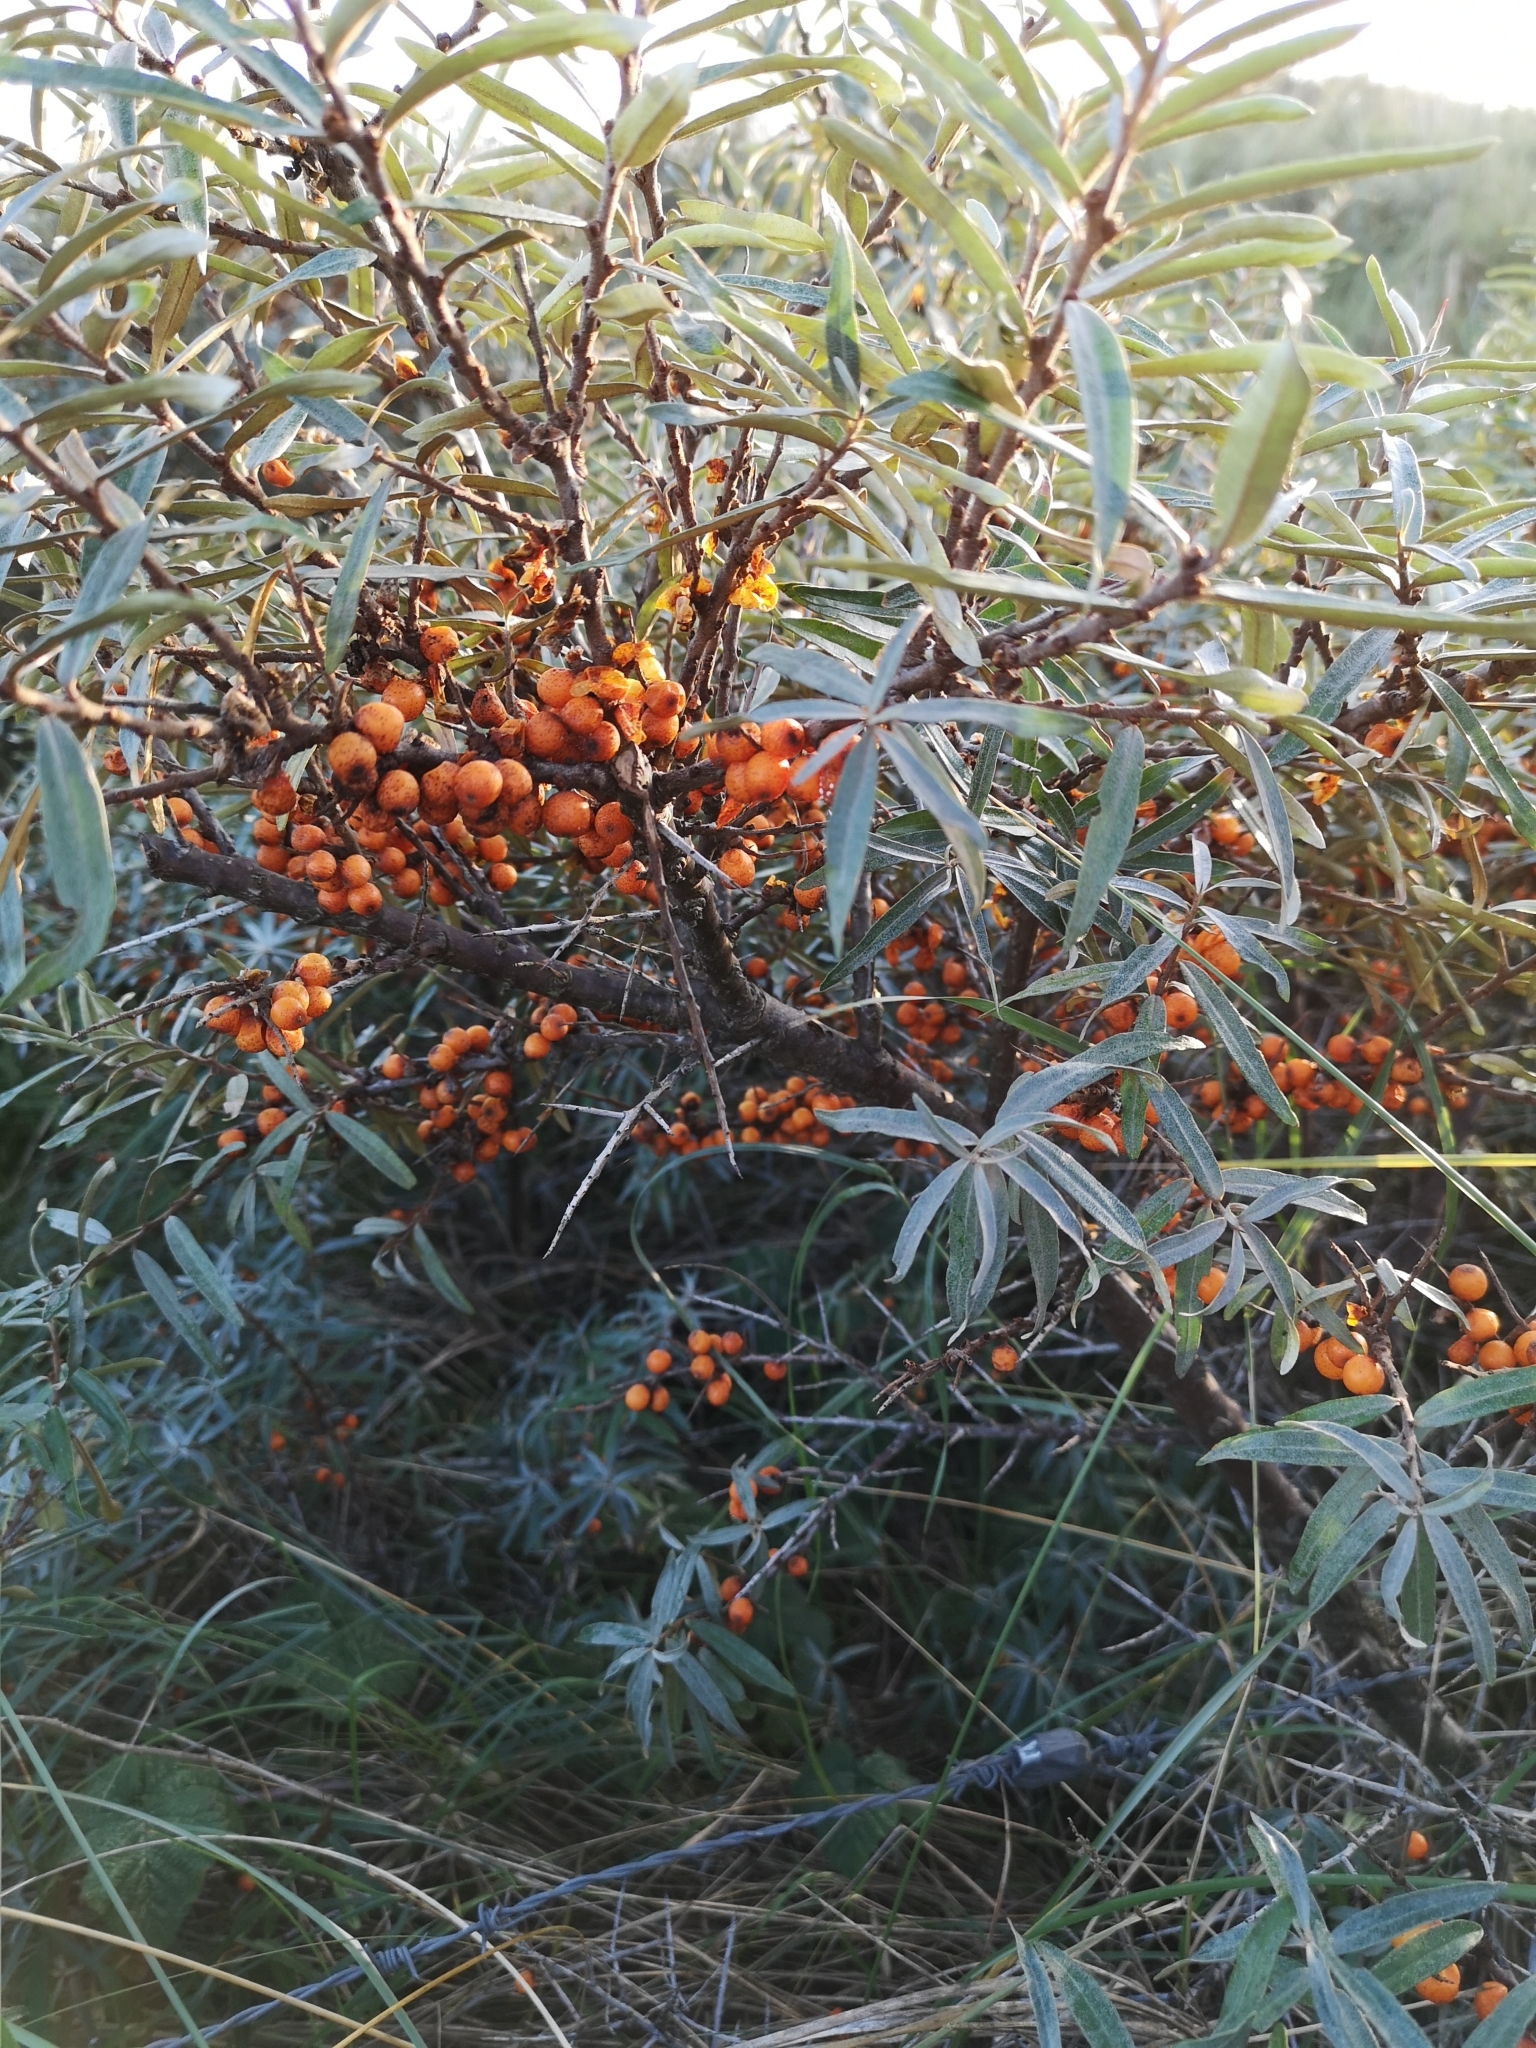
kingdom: Plantae
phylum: Tracheophyta
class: Magnoliopsida
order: Rosales
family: Elaeagnaceae
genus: Hippophae
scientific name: Hippophae rhamnoides
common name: Sea-buckthorn
